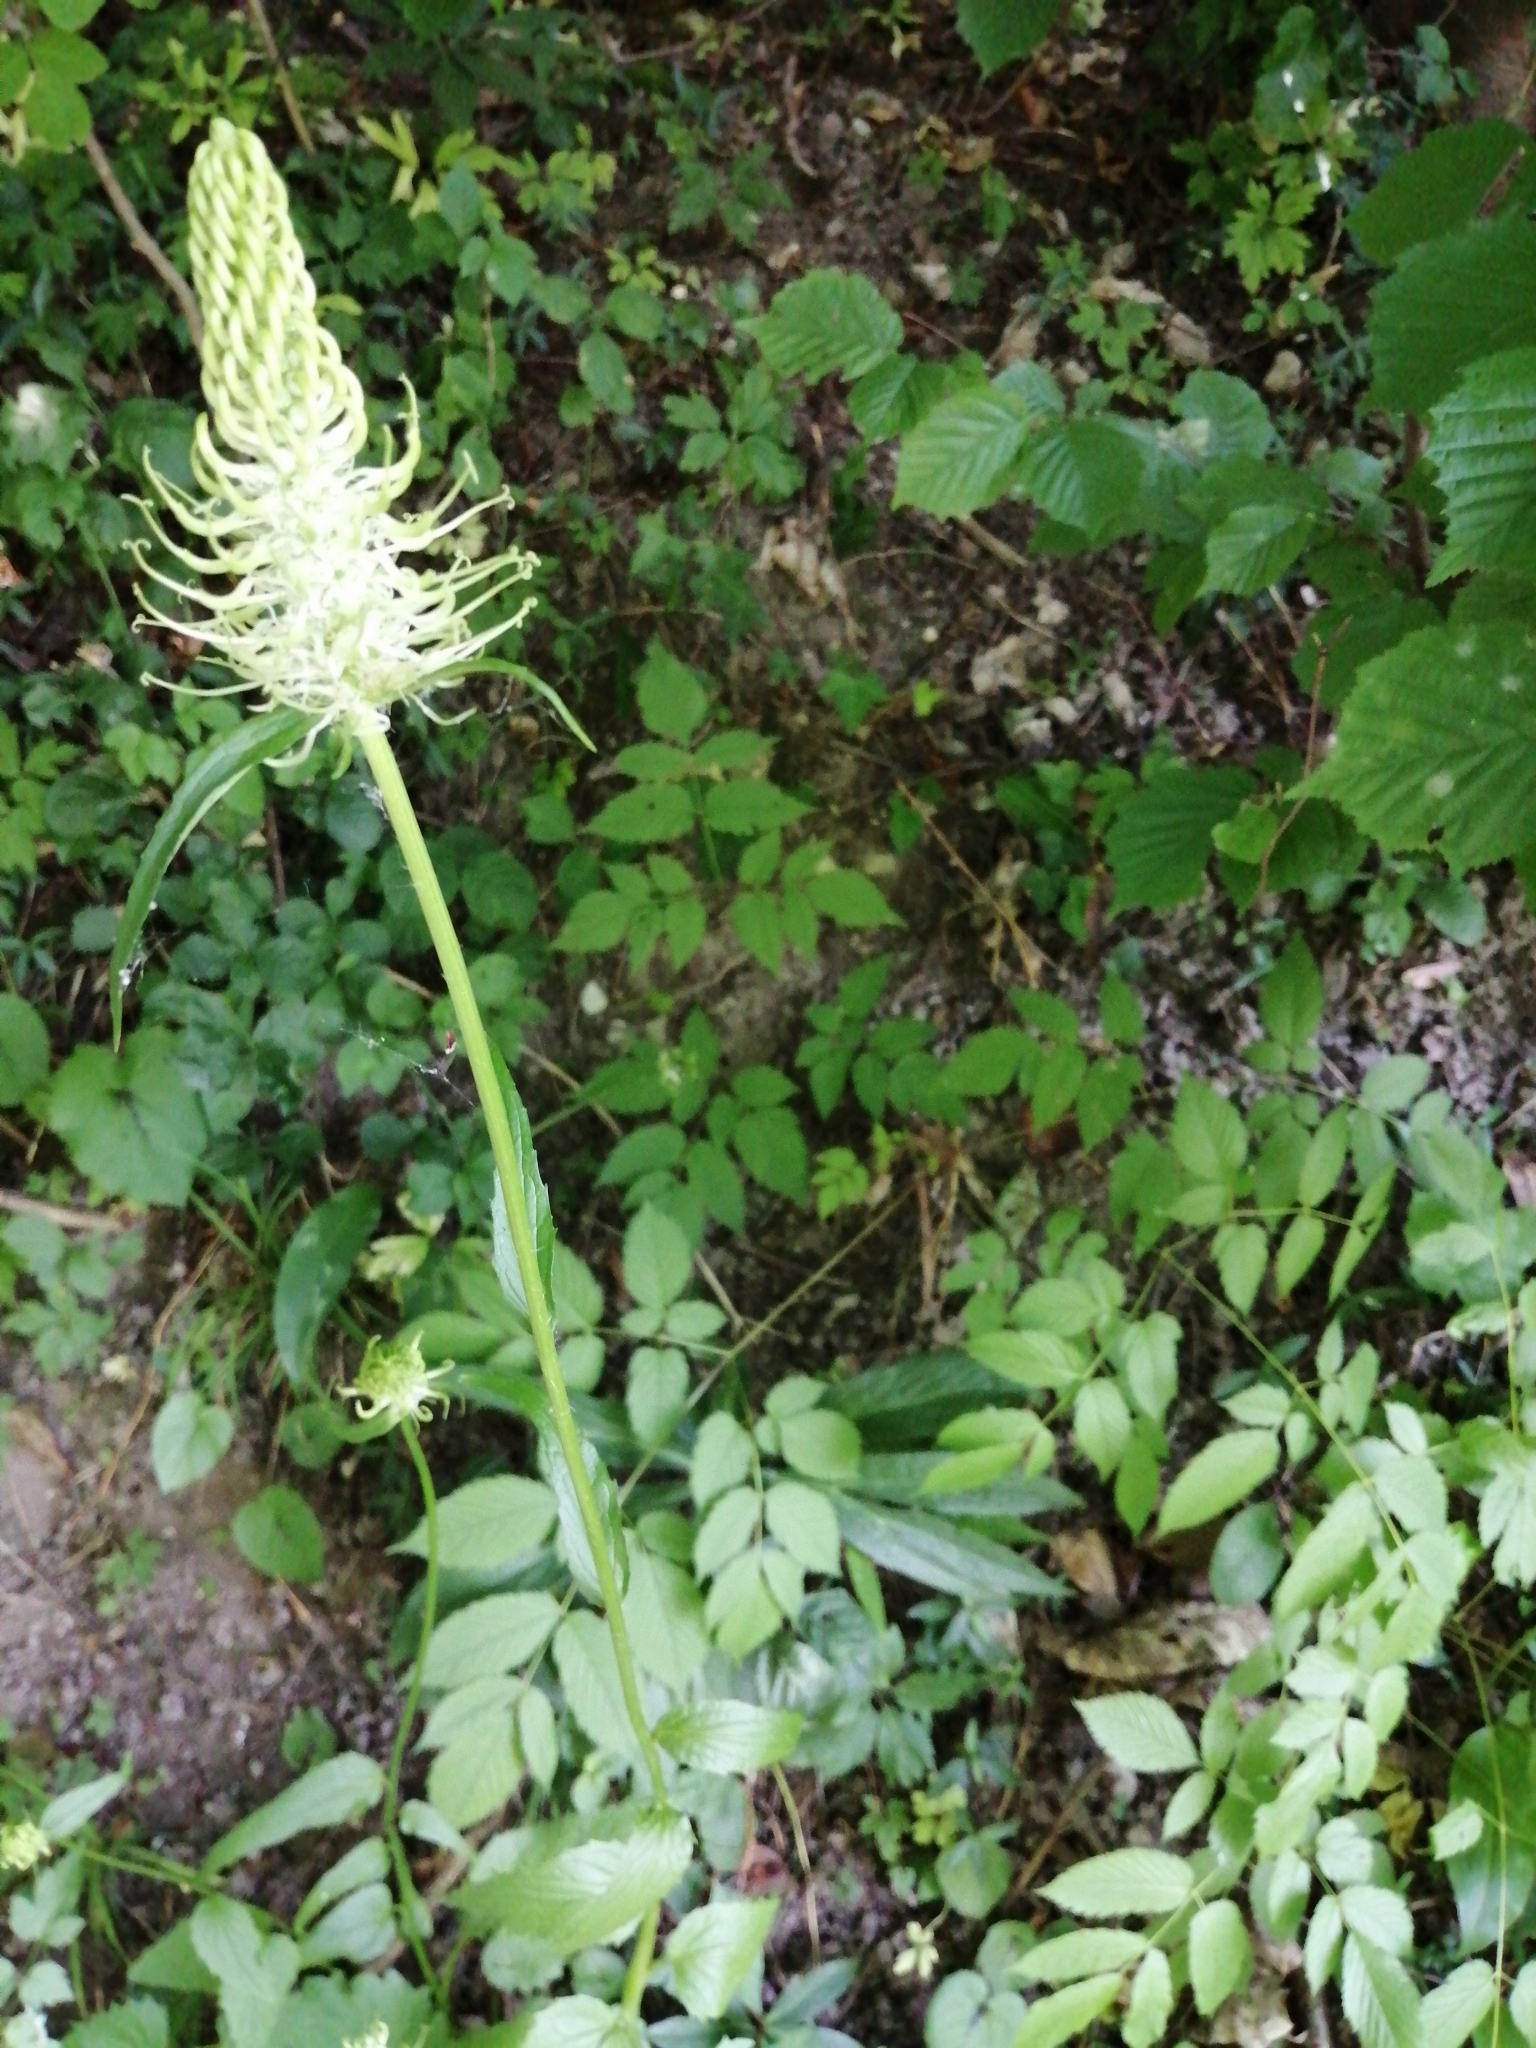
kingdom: Plantae
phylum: Tracheophyta
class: Magnoliopsida
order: Asterales
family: Campanulaceae
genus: Phyteuma
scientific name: Phyteuma spicatum
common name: Spiked rampion
